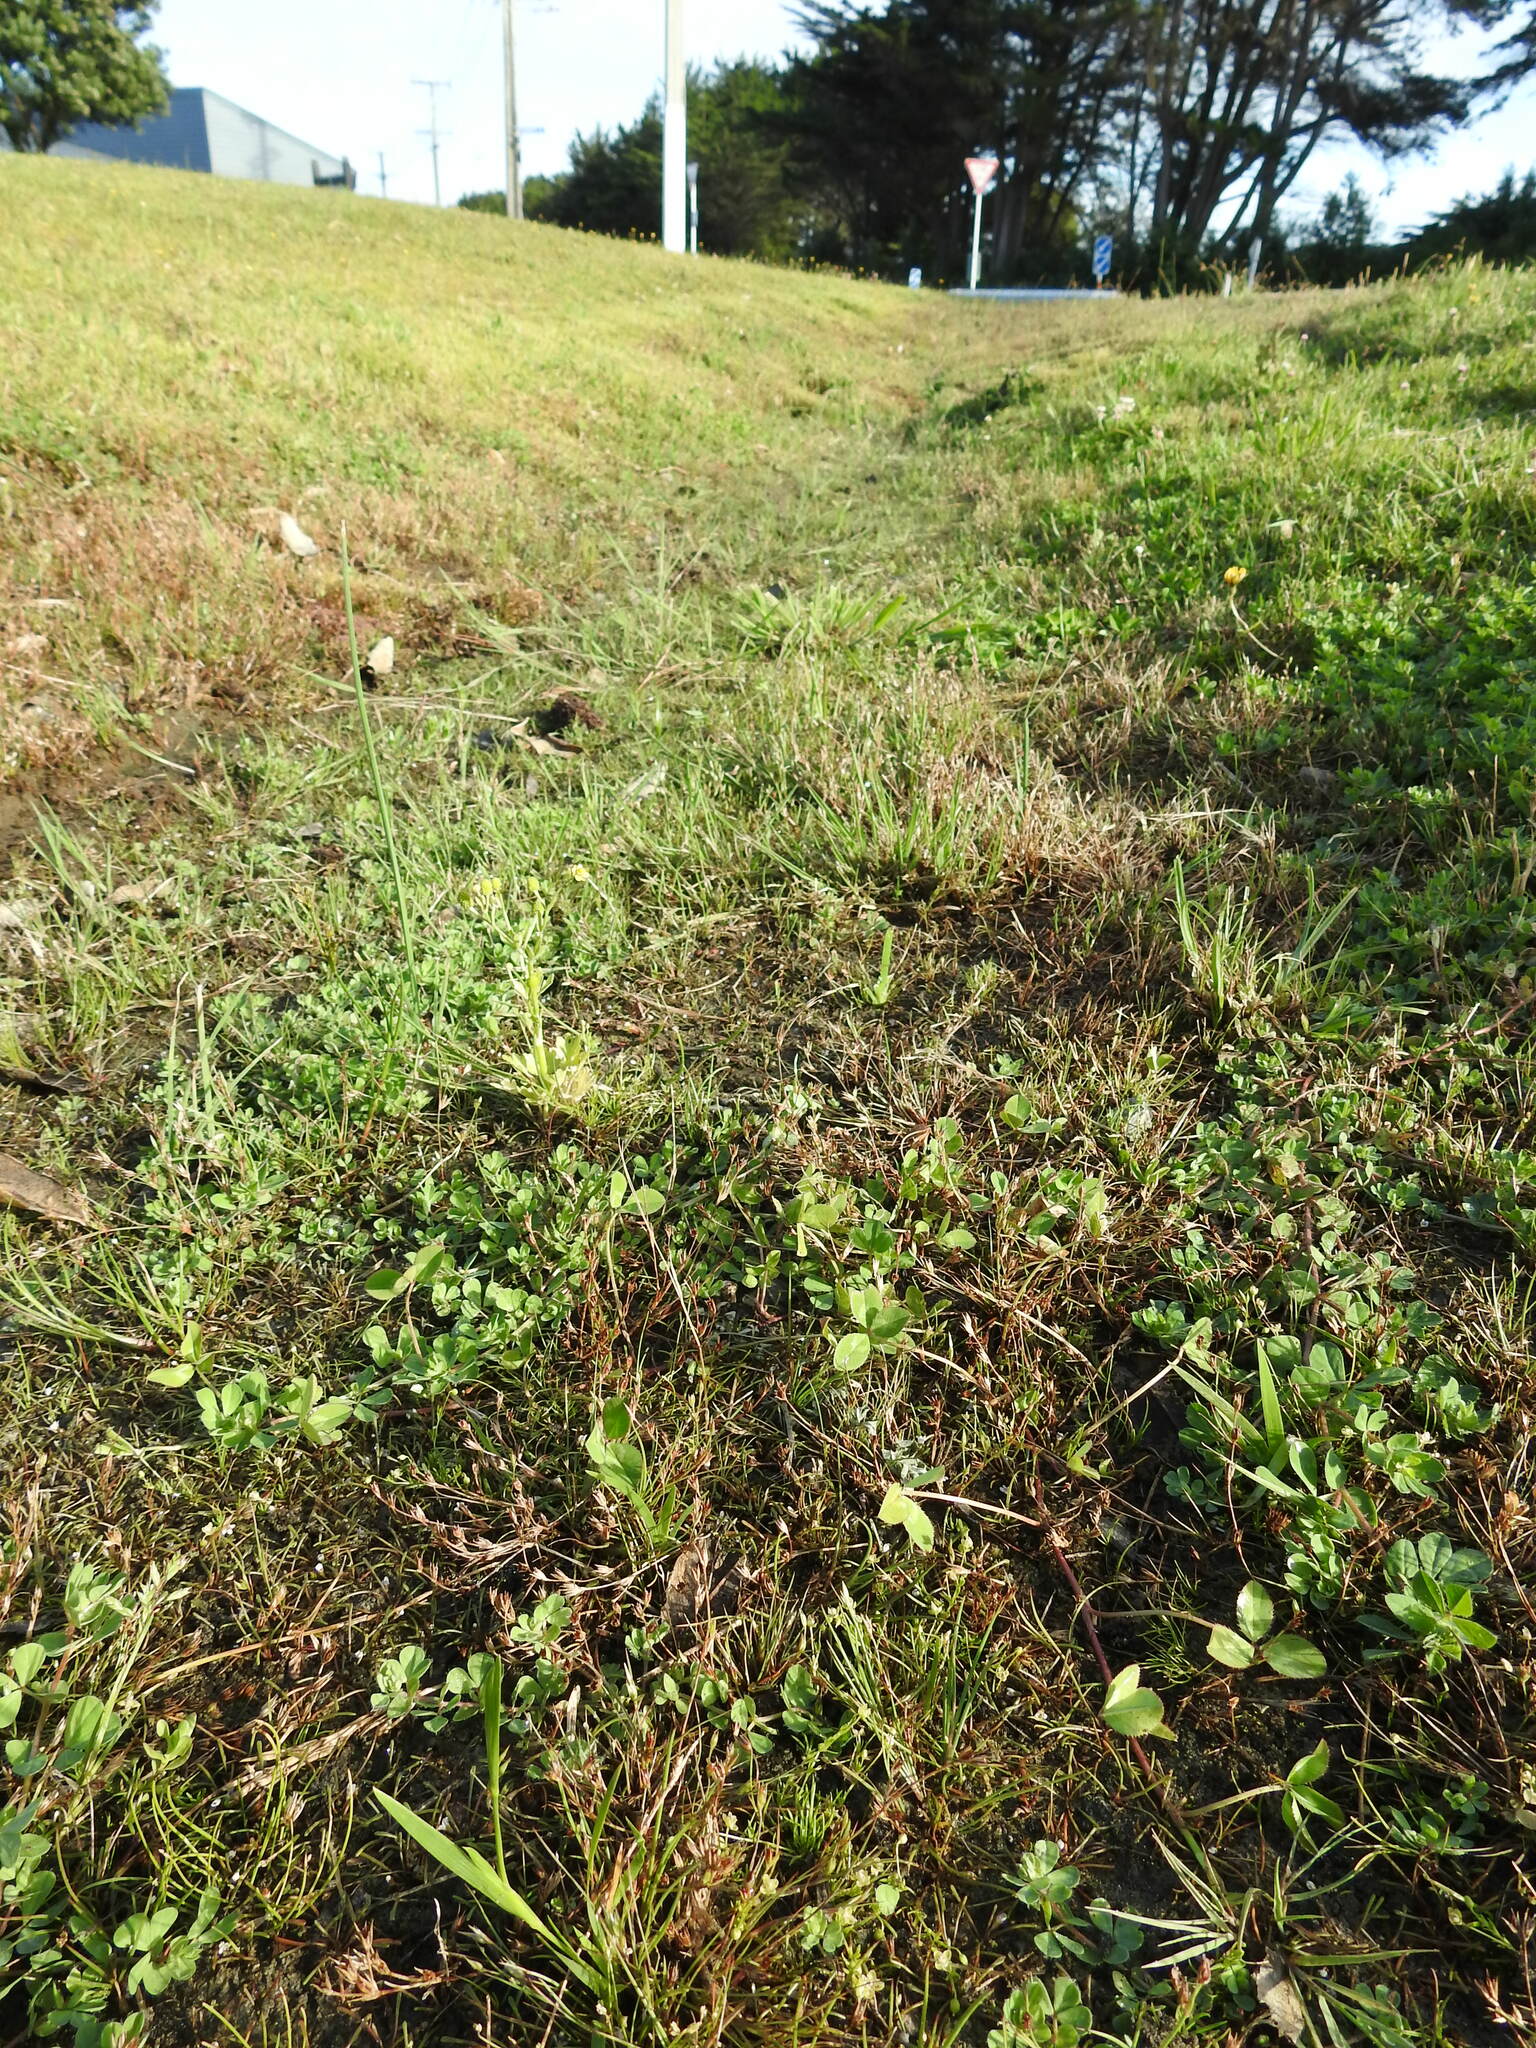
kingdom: Plantae
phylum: Tracheophyta
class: Magnoliopsida
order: Caryophyllales
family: Caryophyllaceae
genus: Sagina
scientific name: Sagina procumbens
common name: Procumbent pearlwort
